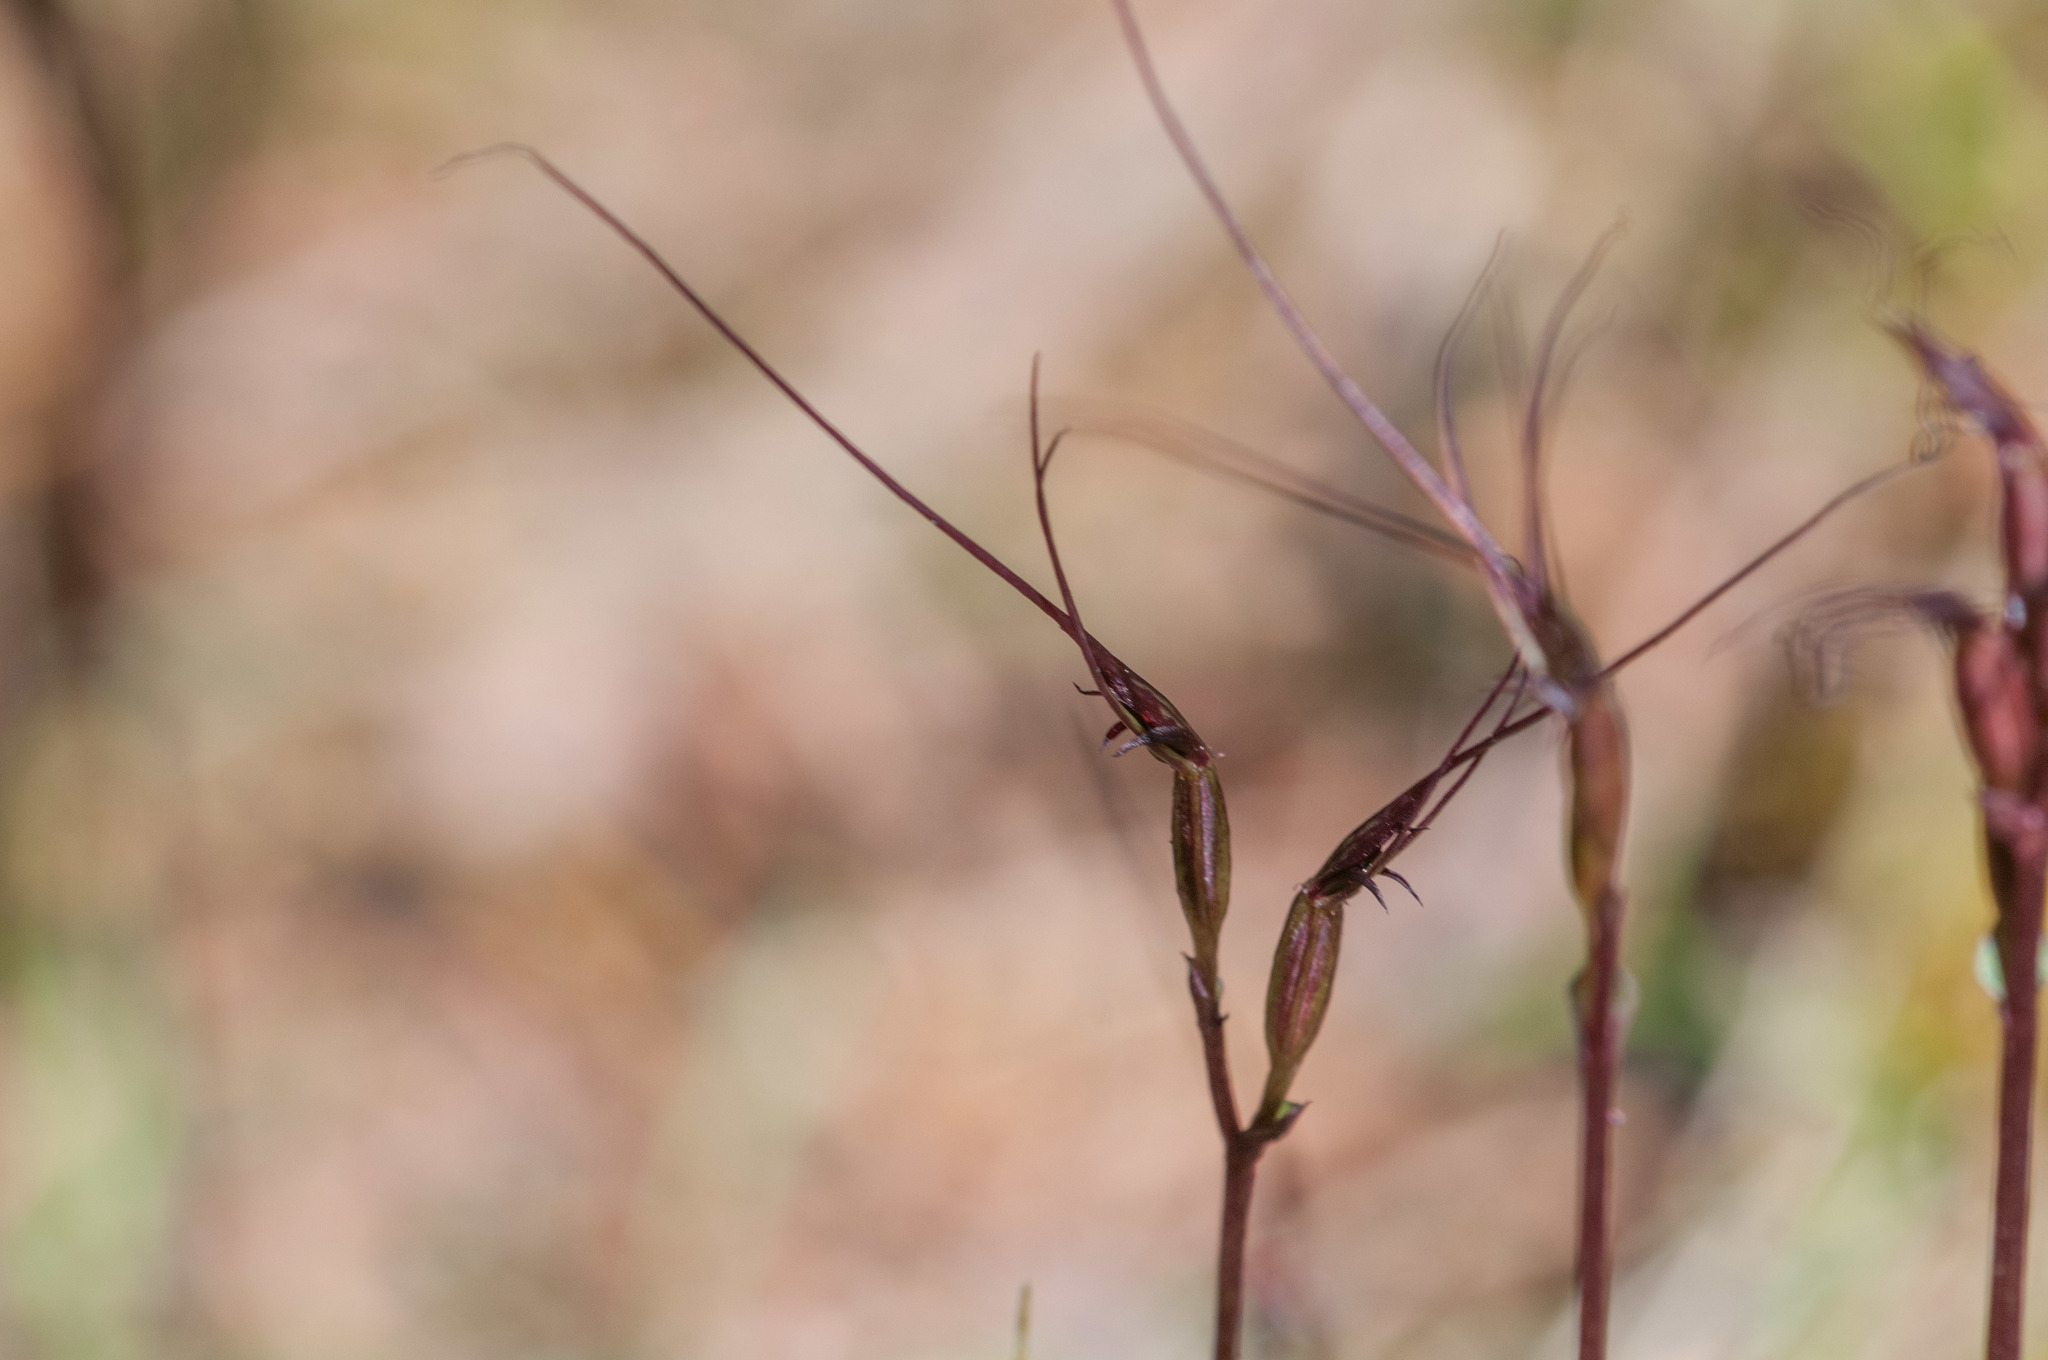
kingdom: Plantae
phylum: Tracheophyta
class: Liliopsida
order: Asparagales
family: Orchidaceae
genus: Acianthus
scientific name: Acianthus caudatus
